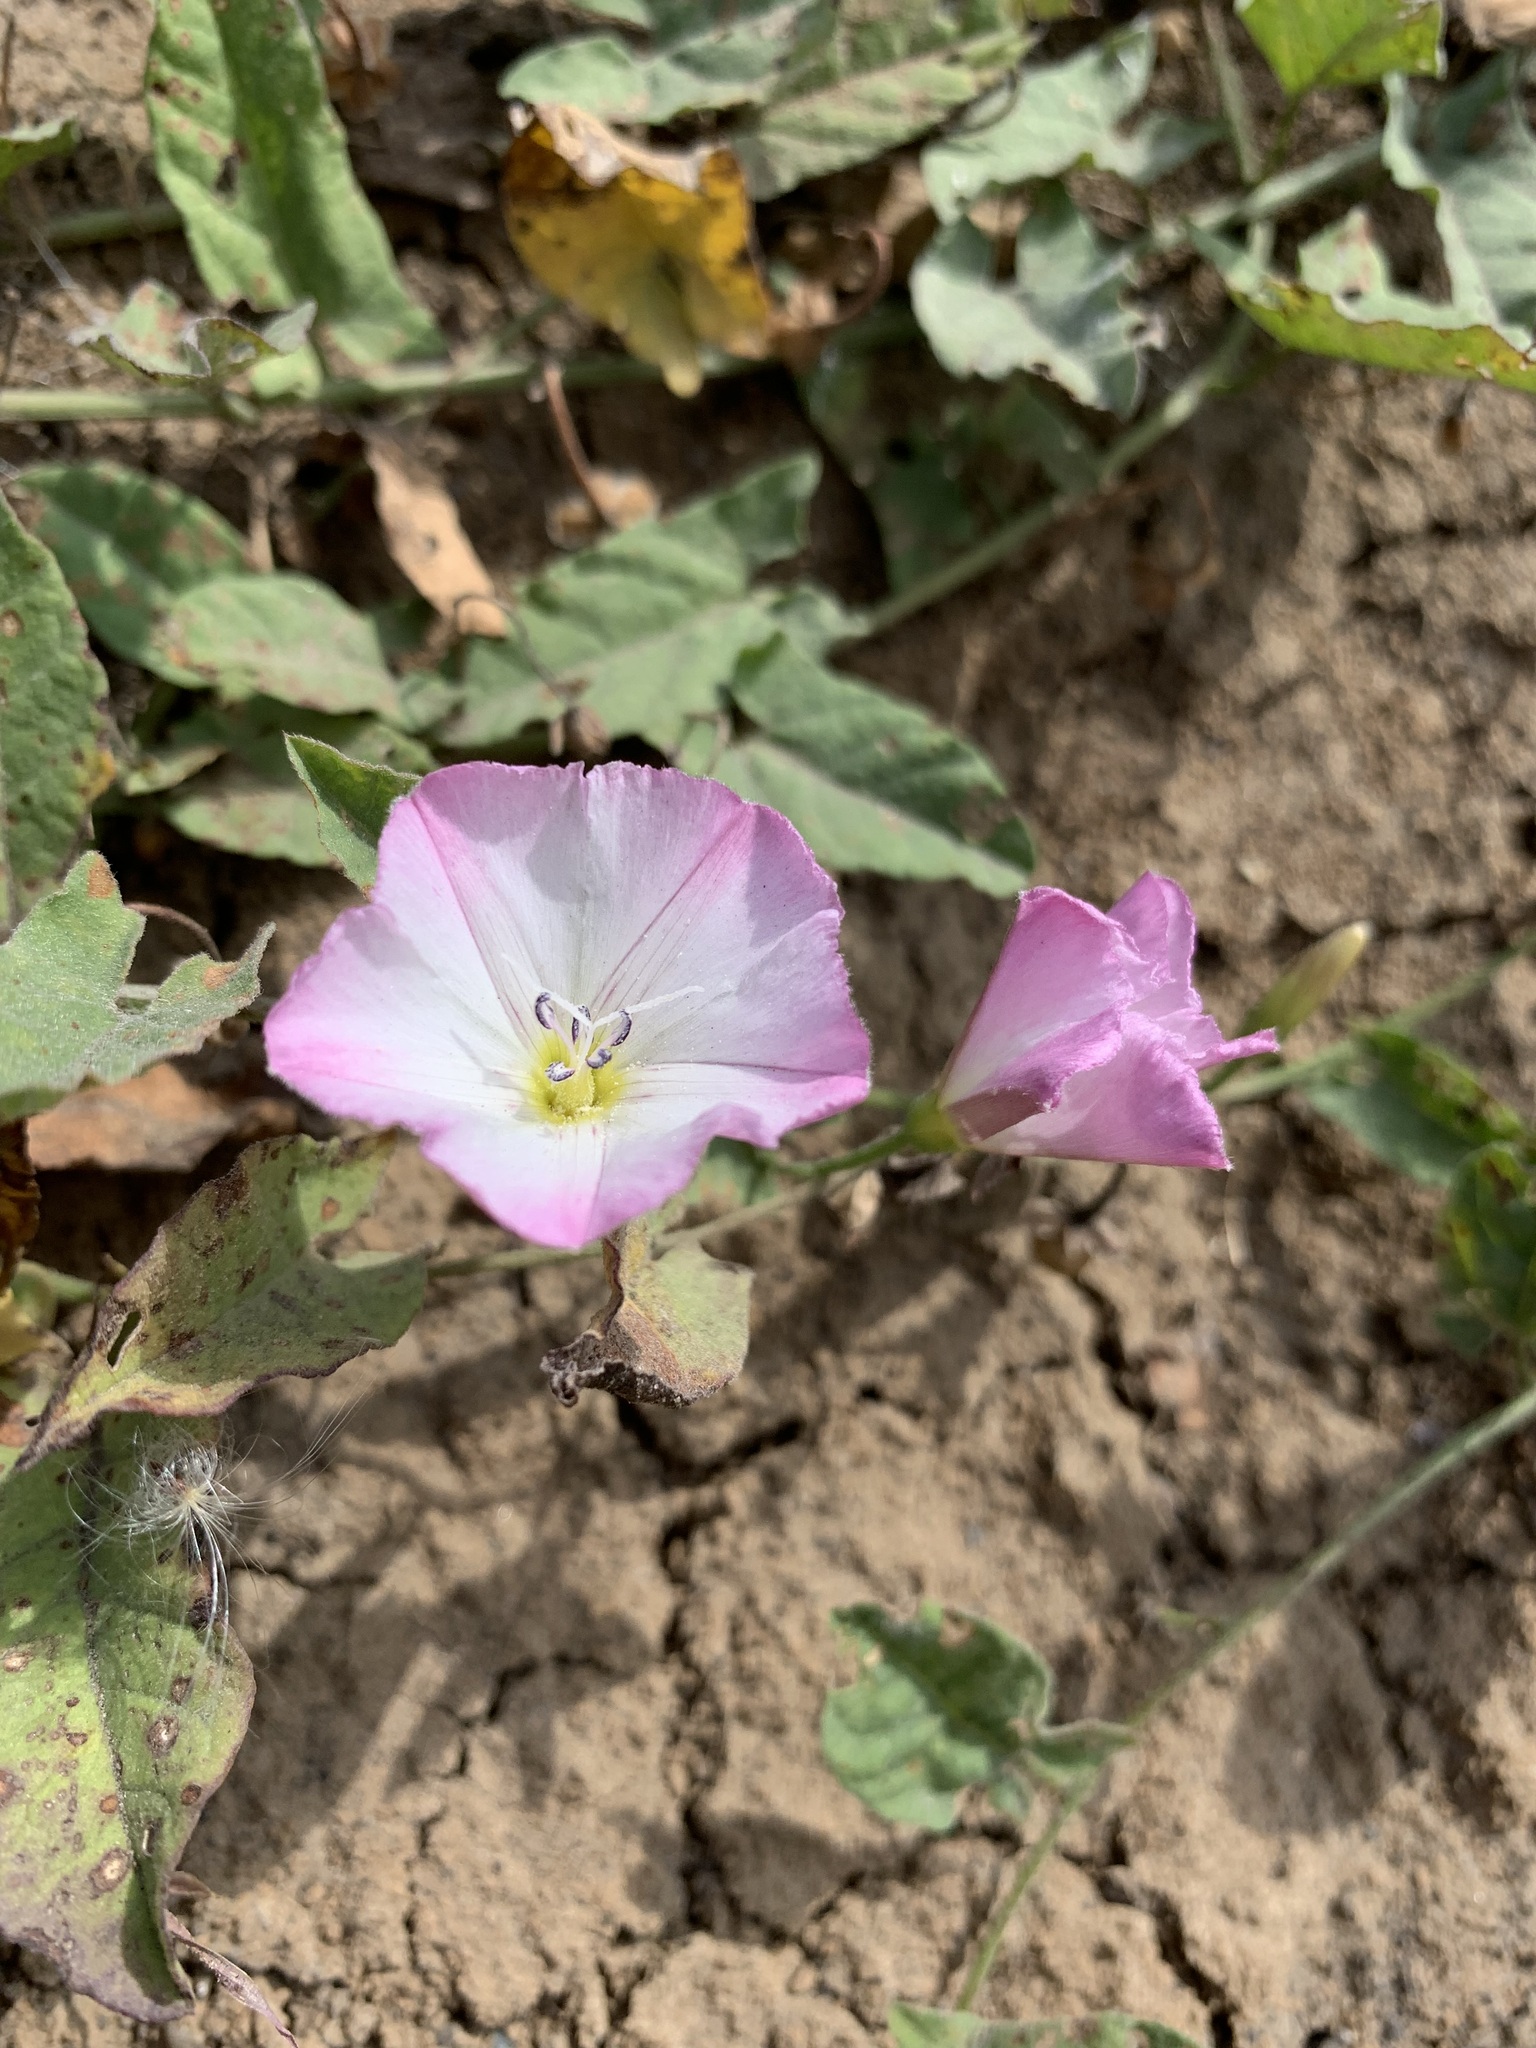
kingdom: Plantae
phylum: Tracheophyta
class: Magnoliopsida
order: Solanales
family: Convolvulaceae
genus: Convolvulus
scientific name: Convolvulus arvensis
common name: Field bindweed
